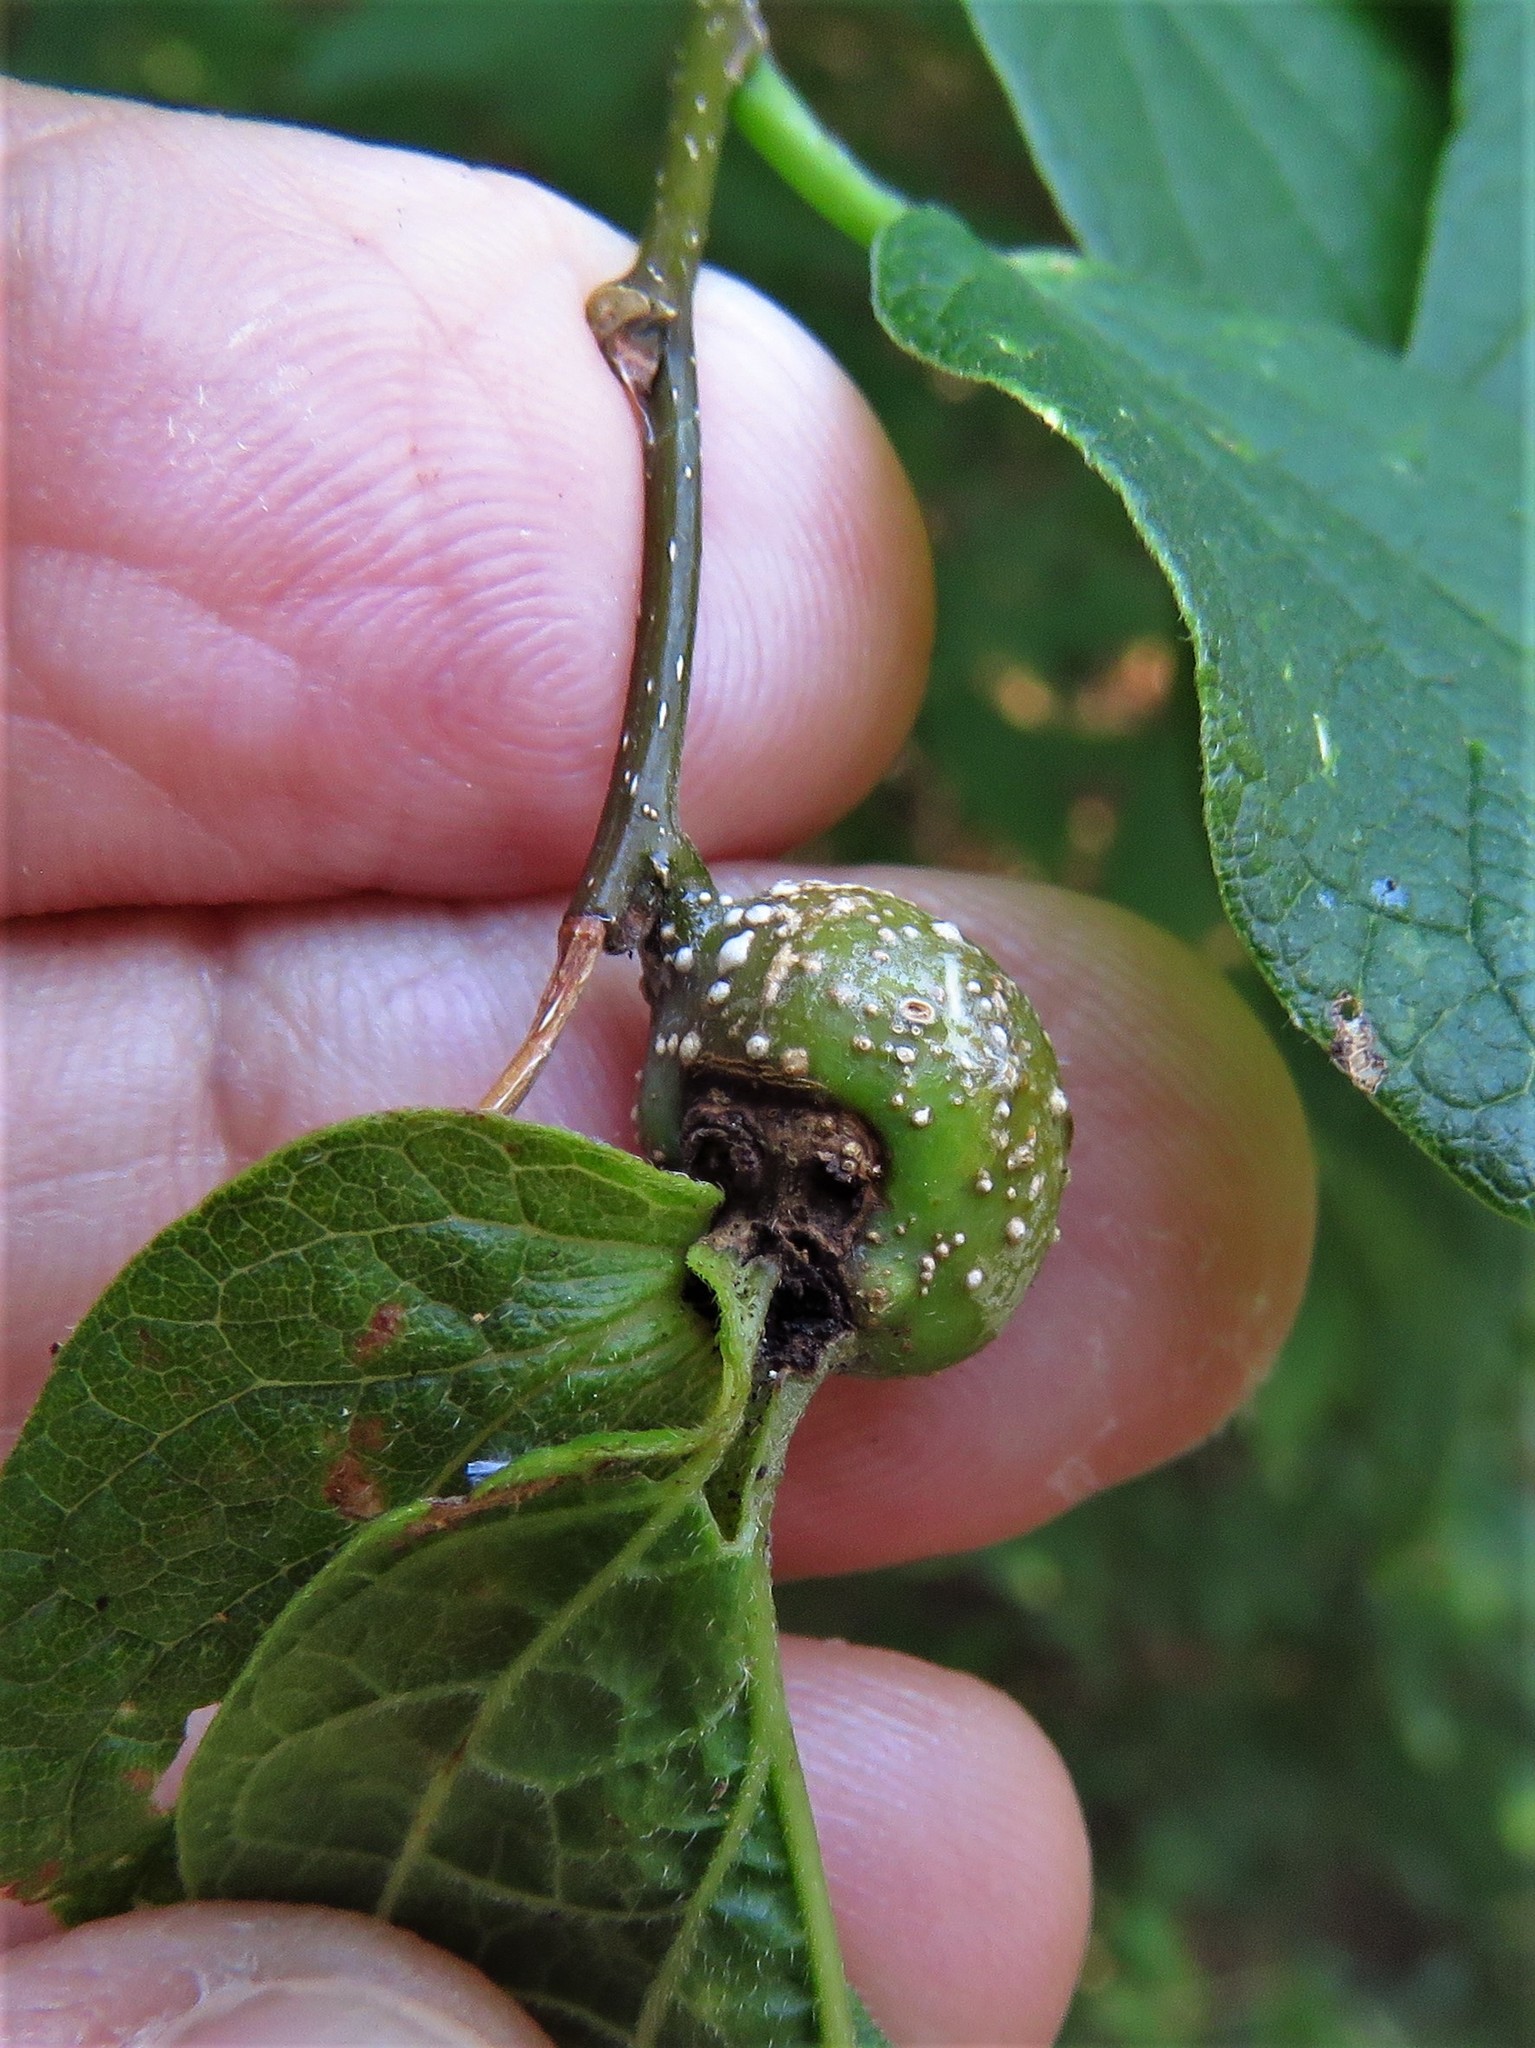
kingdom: Animalia
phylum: Arthropoda
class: Insecta
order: Hemiptera
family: Aphalaridae
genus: Pachypsylla
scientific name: Pachypsylla venusta
